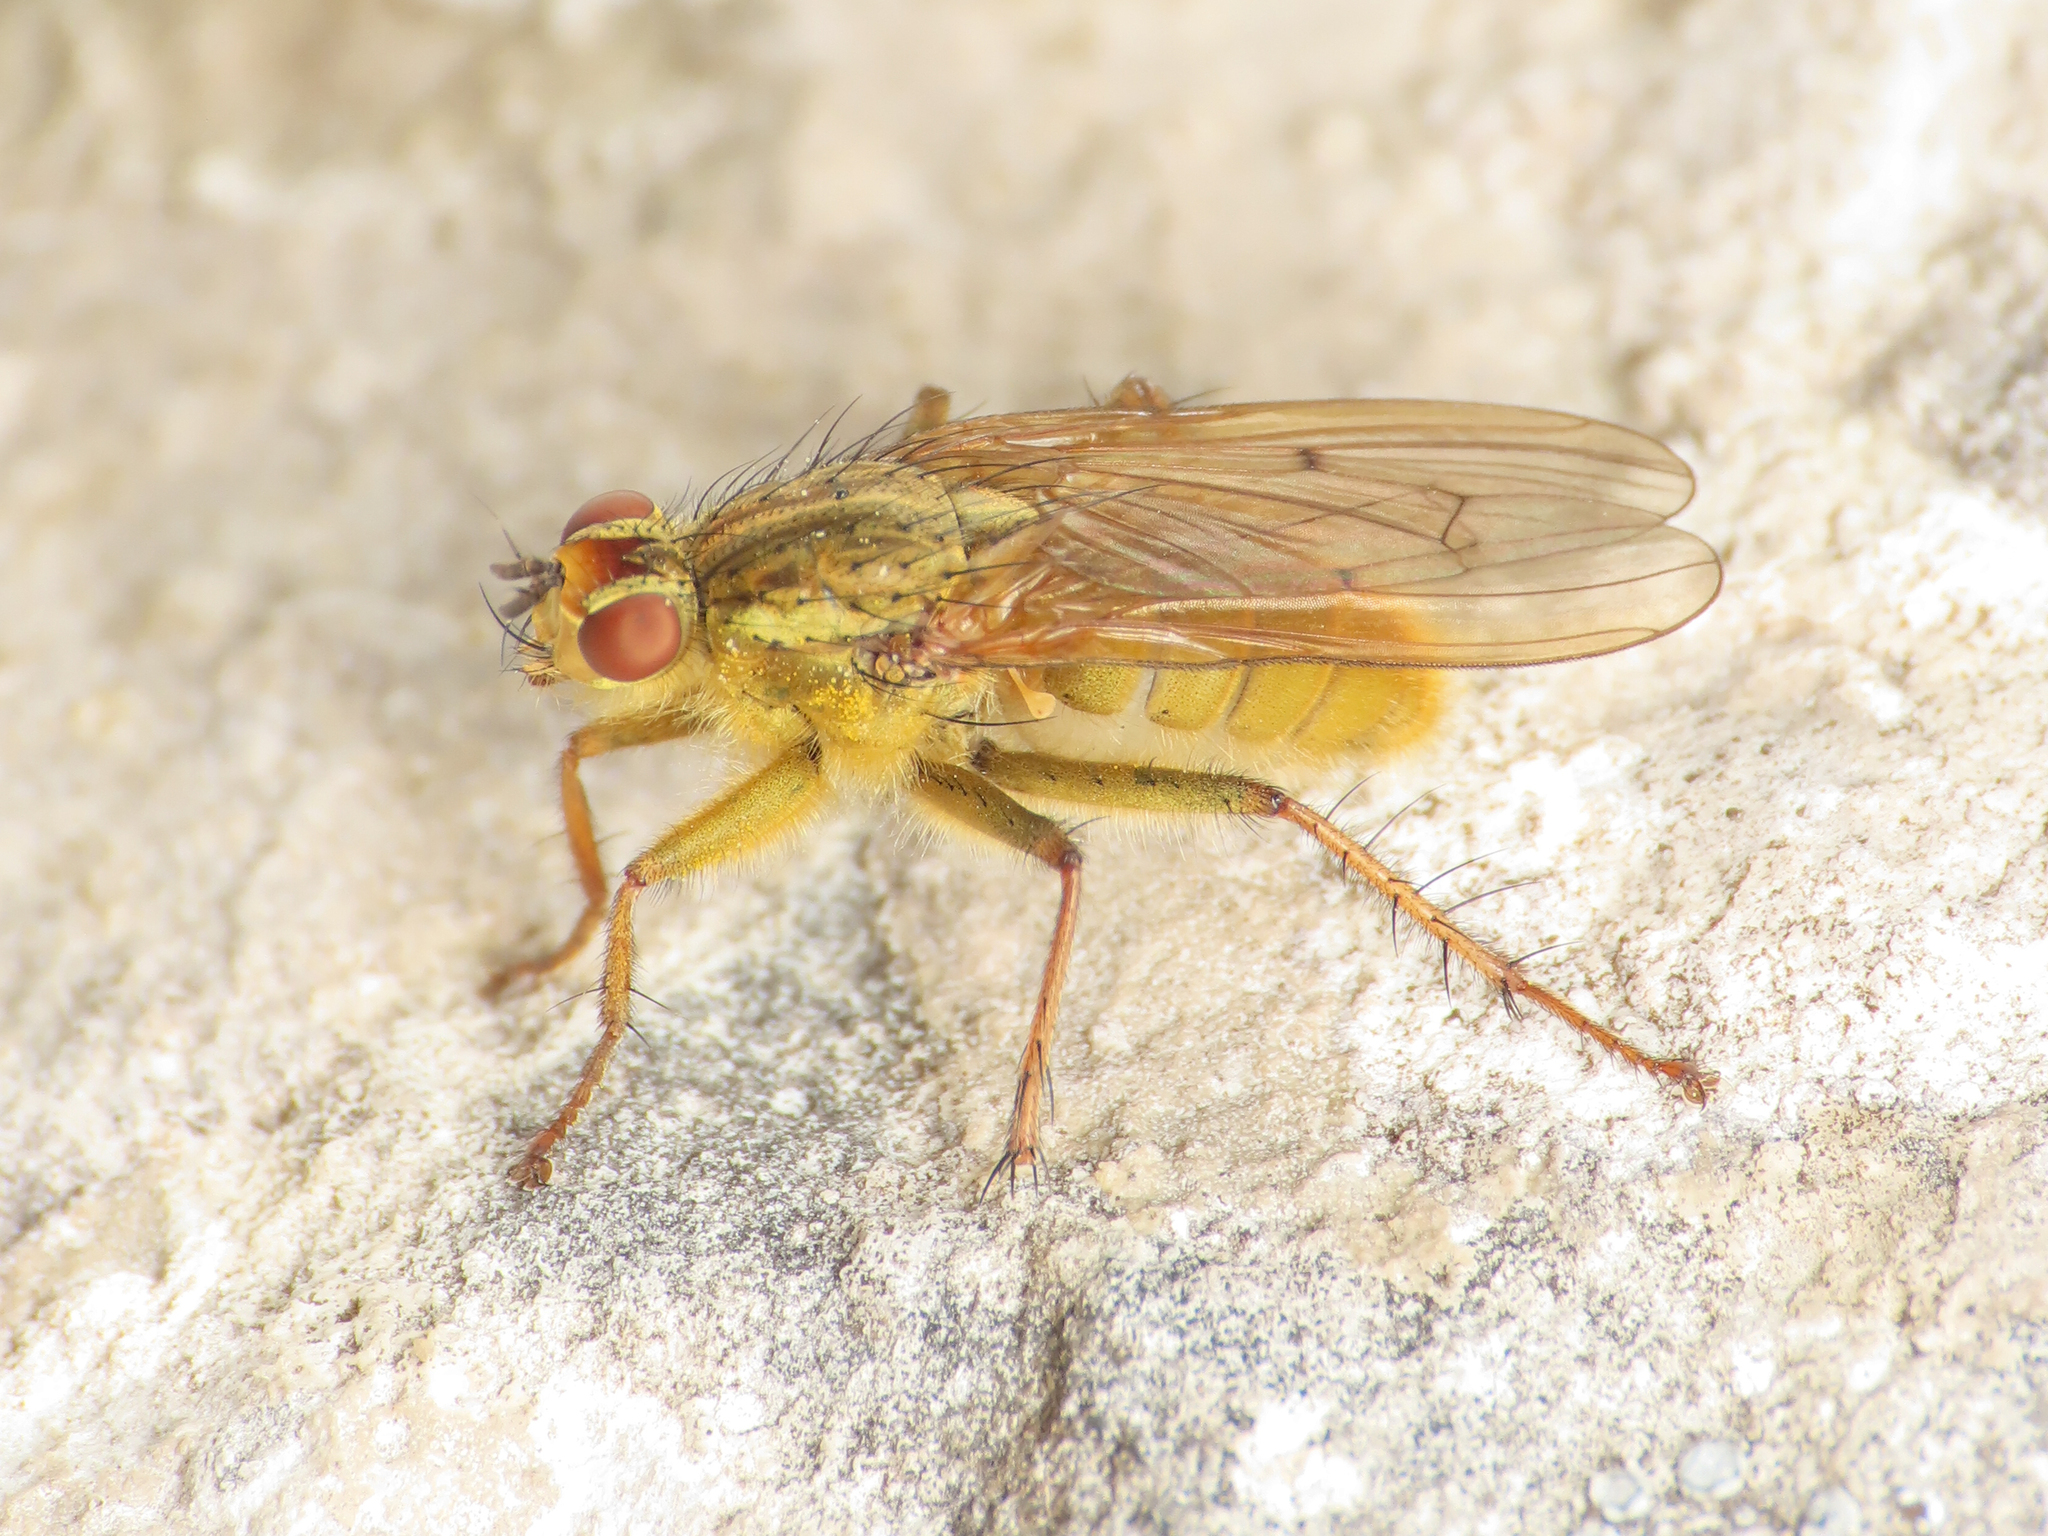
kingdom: Animalia
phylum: Arthropoda
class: Insecta
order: Diptera
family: Scathophagidae
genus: Scathophaga
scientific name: Scathophaga stercoraria
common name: Yellow dung fly
